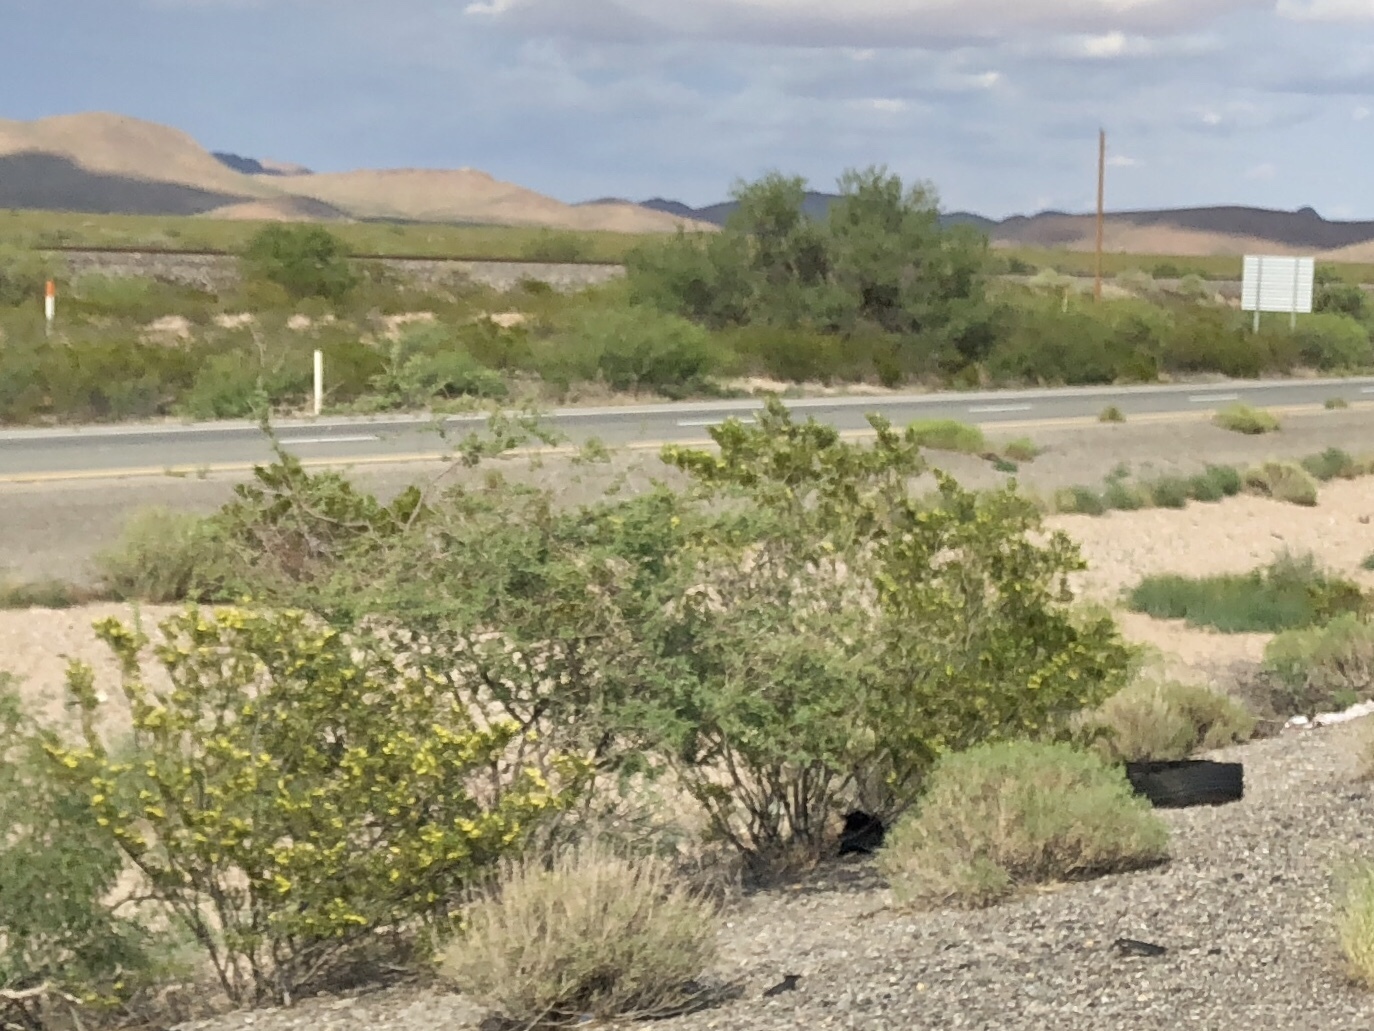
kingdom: Plantae
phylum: Tracheophyta
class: Magnoliopsida
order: Zygophyllales
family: Zygophyllaceae
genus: Larrea
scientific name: Larrea tridentata
